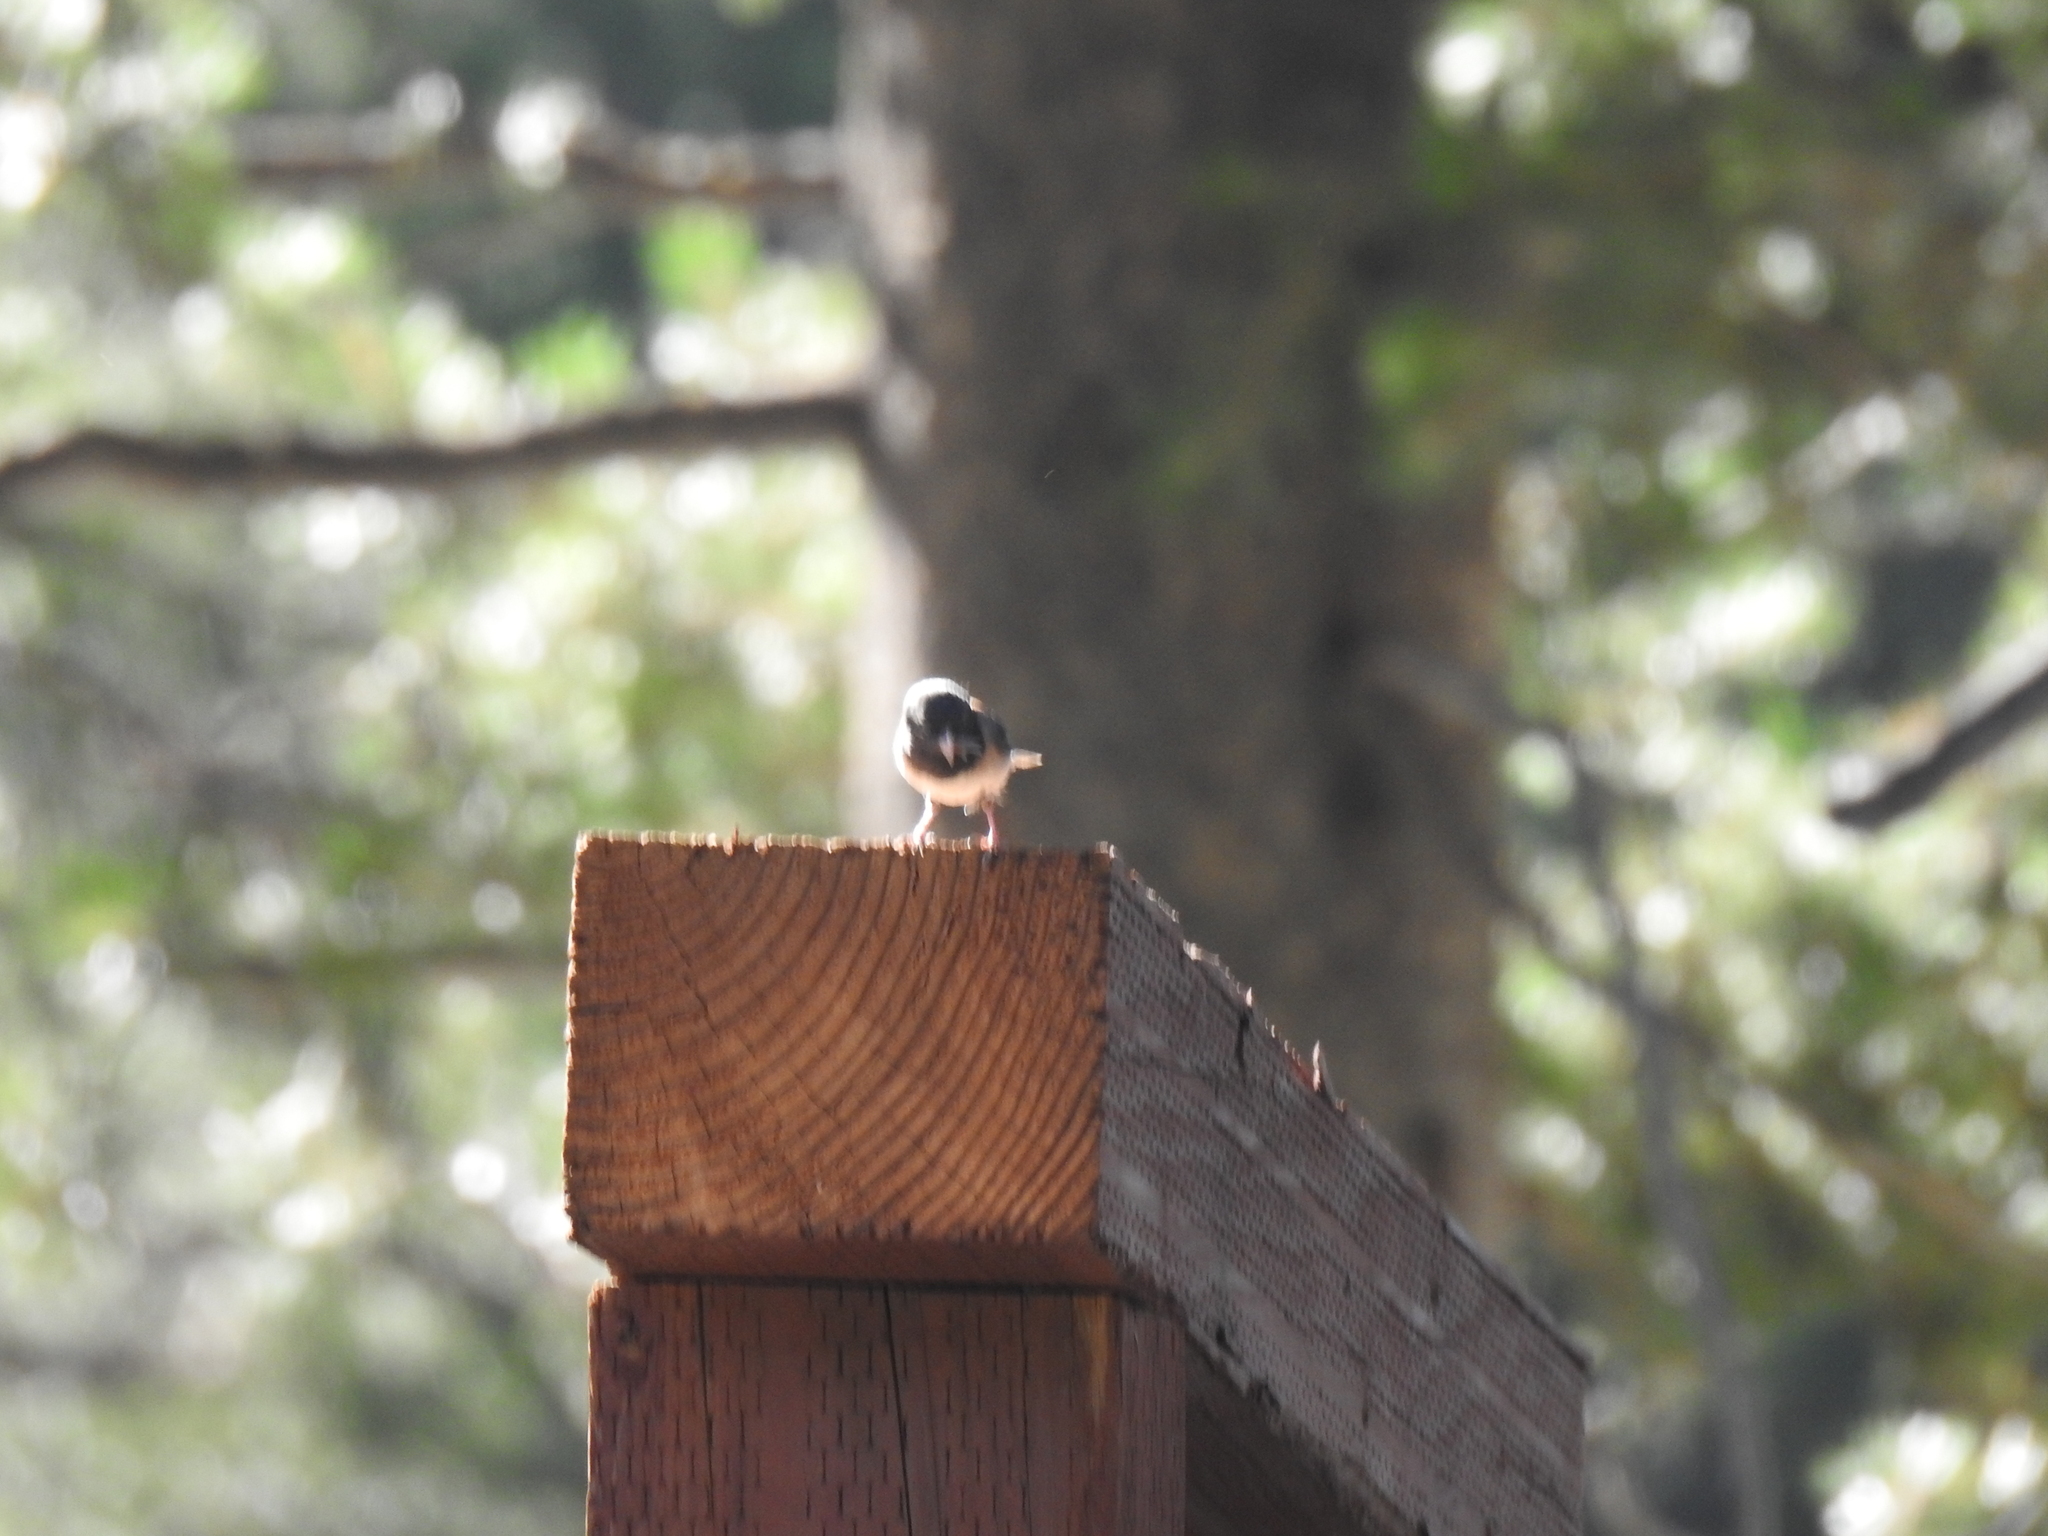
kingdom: Animalia
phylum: Chordata
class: Aves
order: Passeriformes
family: Passerellidae
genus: Junco
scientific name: Junco hyemalis
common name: Dark-eyed junco
